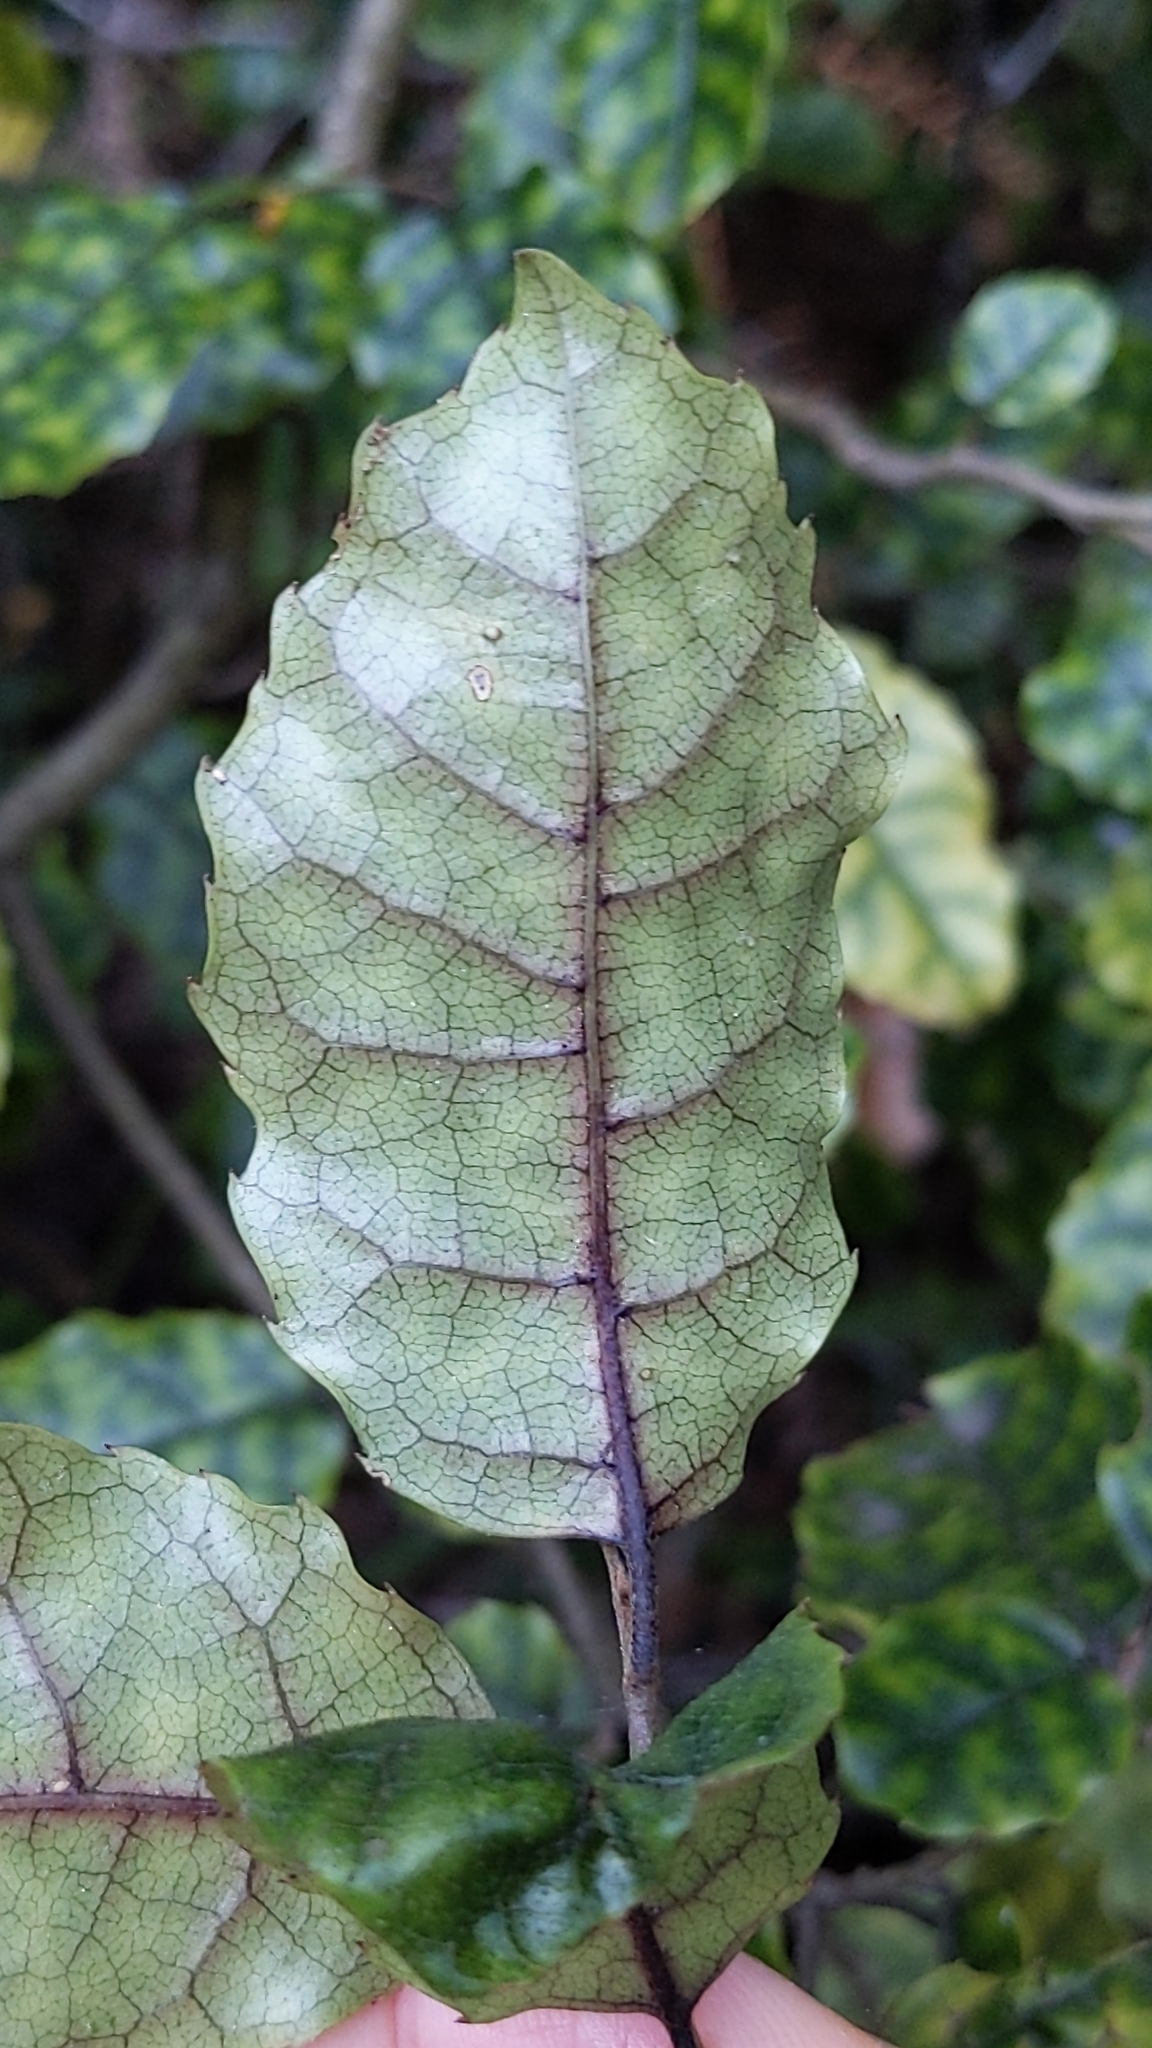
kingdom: Plantae
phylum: Tracheophyta
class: Magnoliopsida
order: Asterales
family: Rousseaceae
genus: Carpodetus
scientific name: Carpodetus serratus
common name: White mapau
